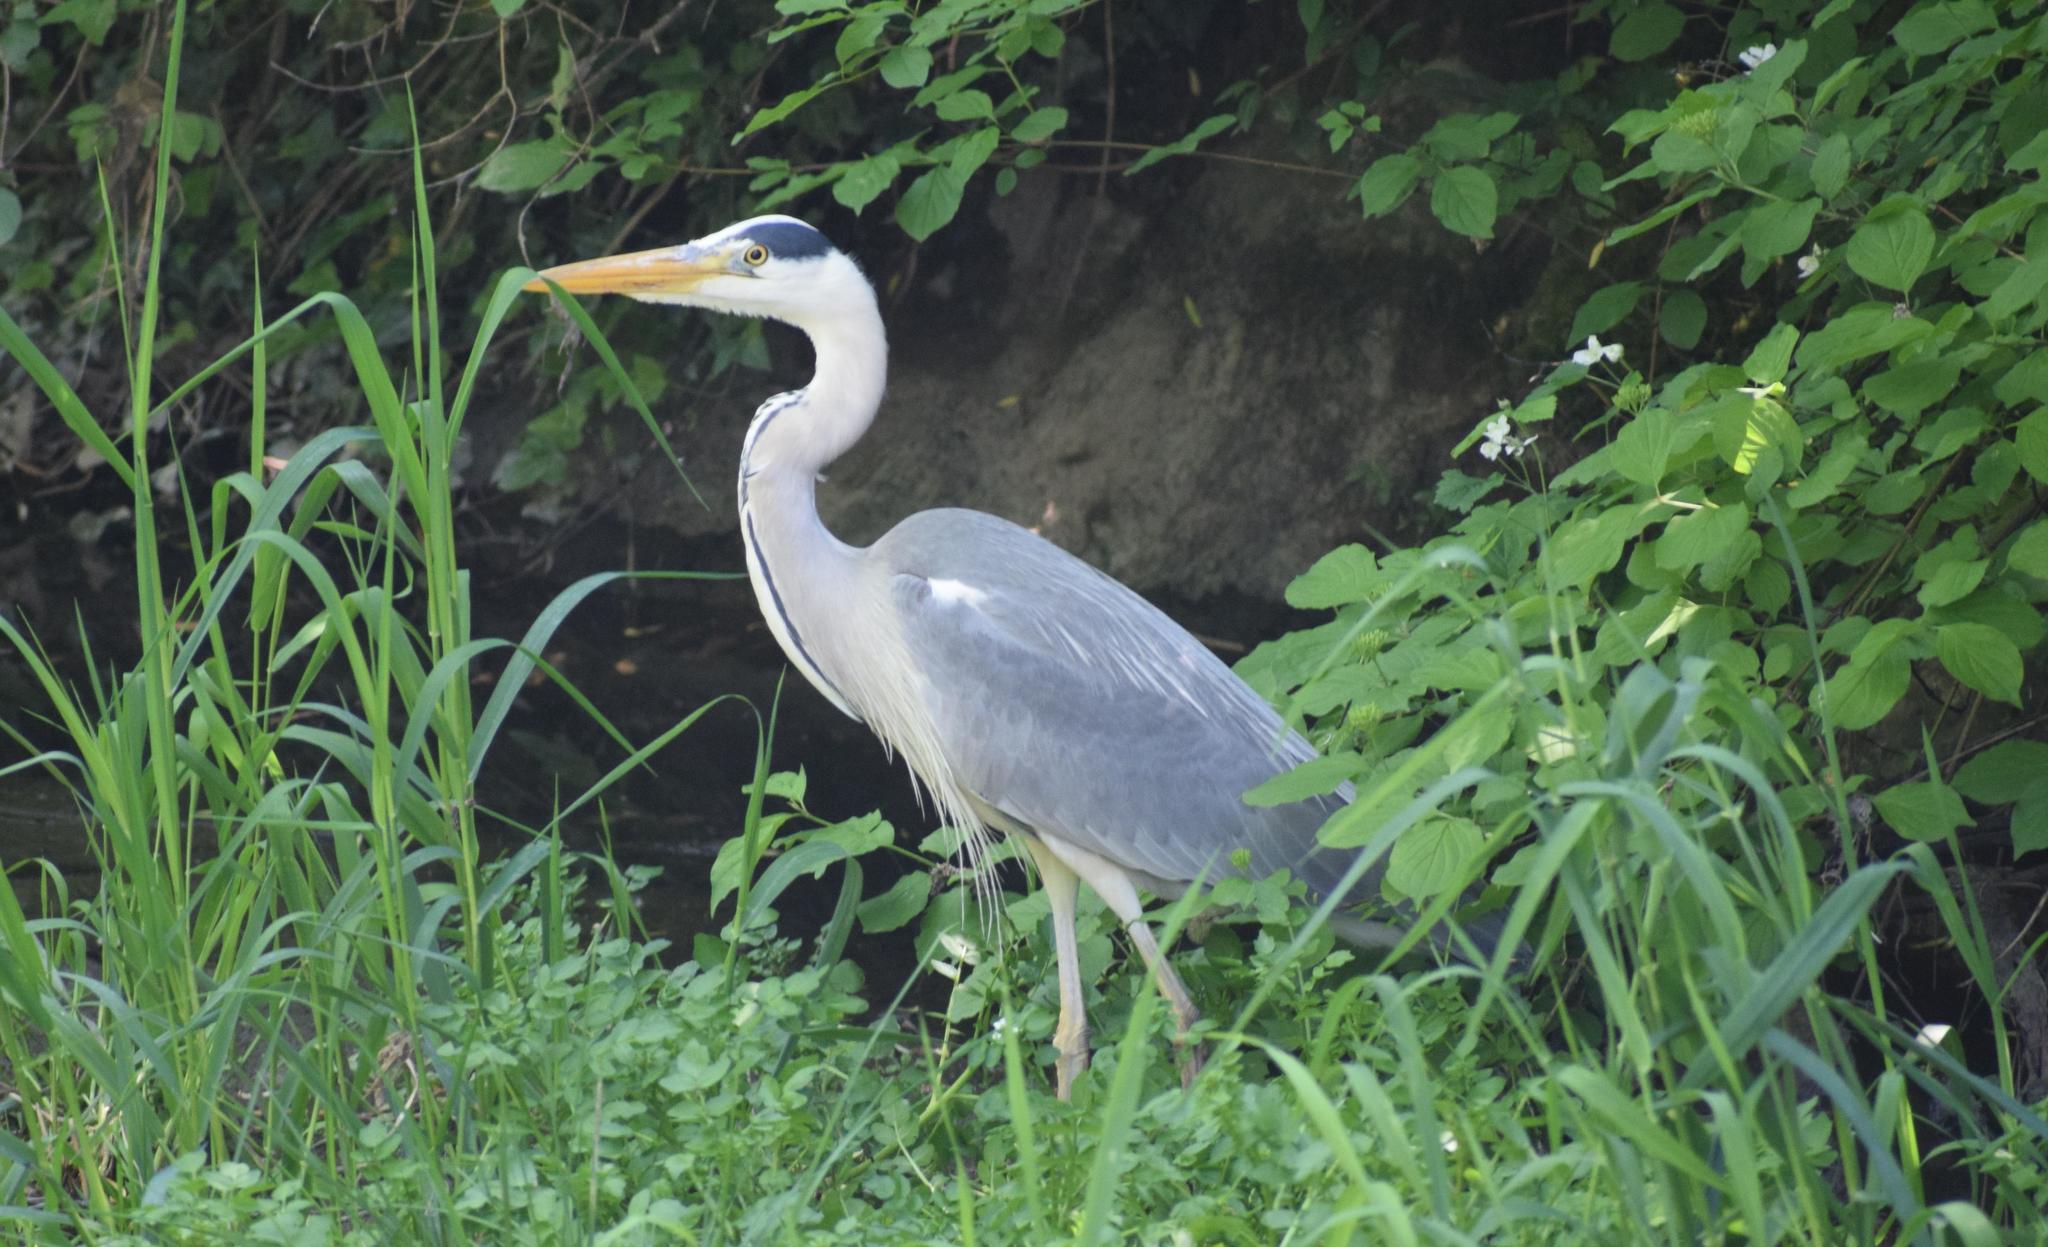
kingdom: Animalia
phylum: Chordata
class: Aves
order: Pelecaniformes
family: Ardeidae
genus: Ardea
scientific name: Ardea cinerea
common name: Grey heron
